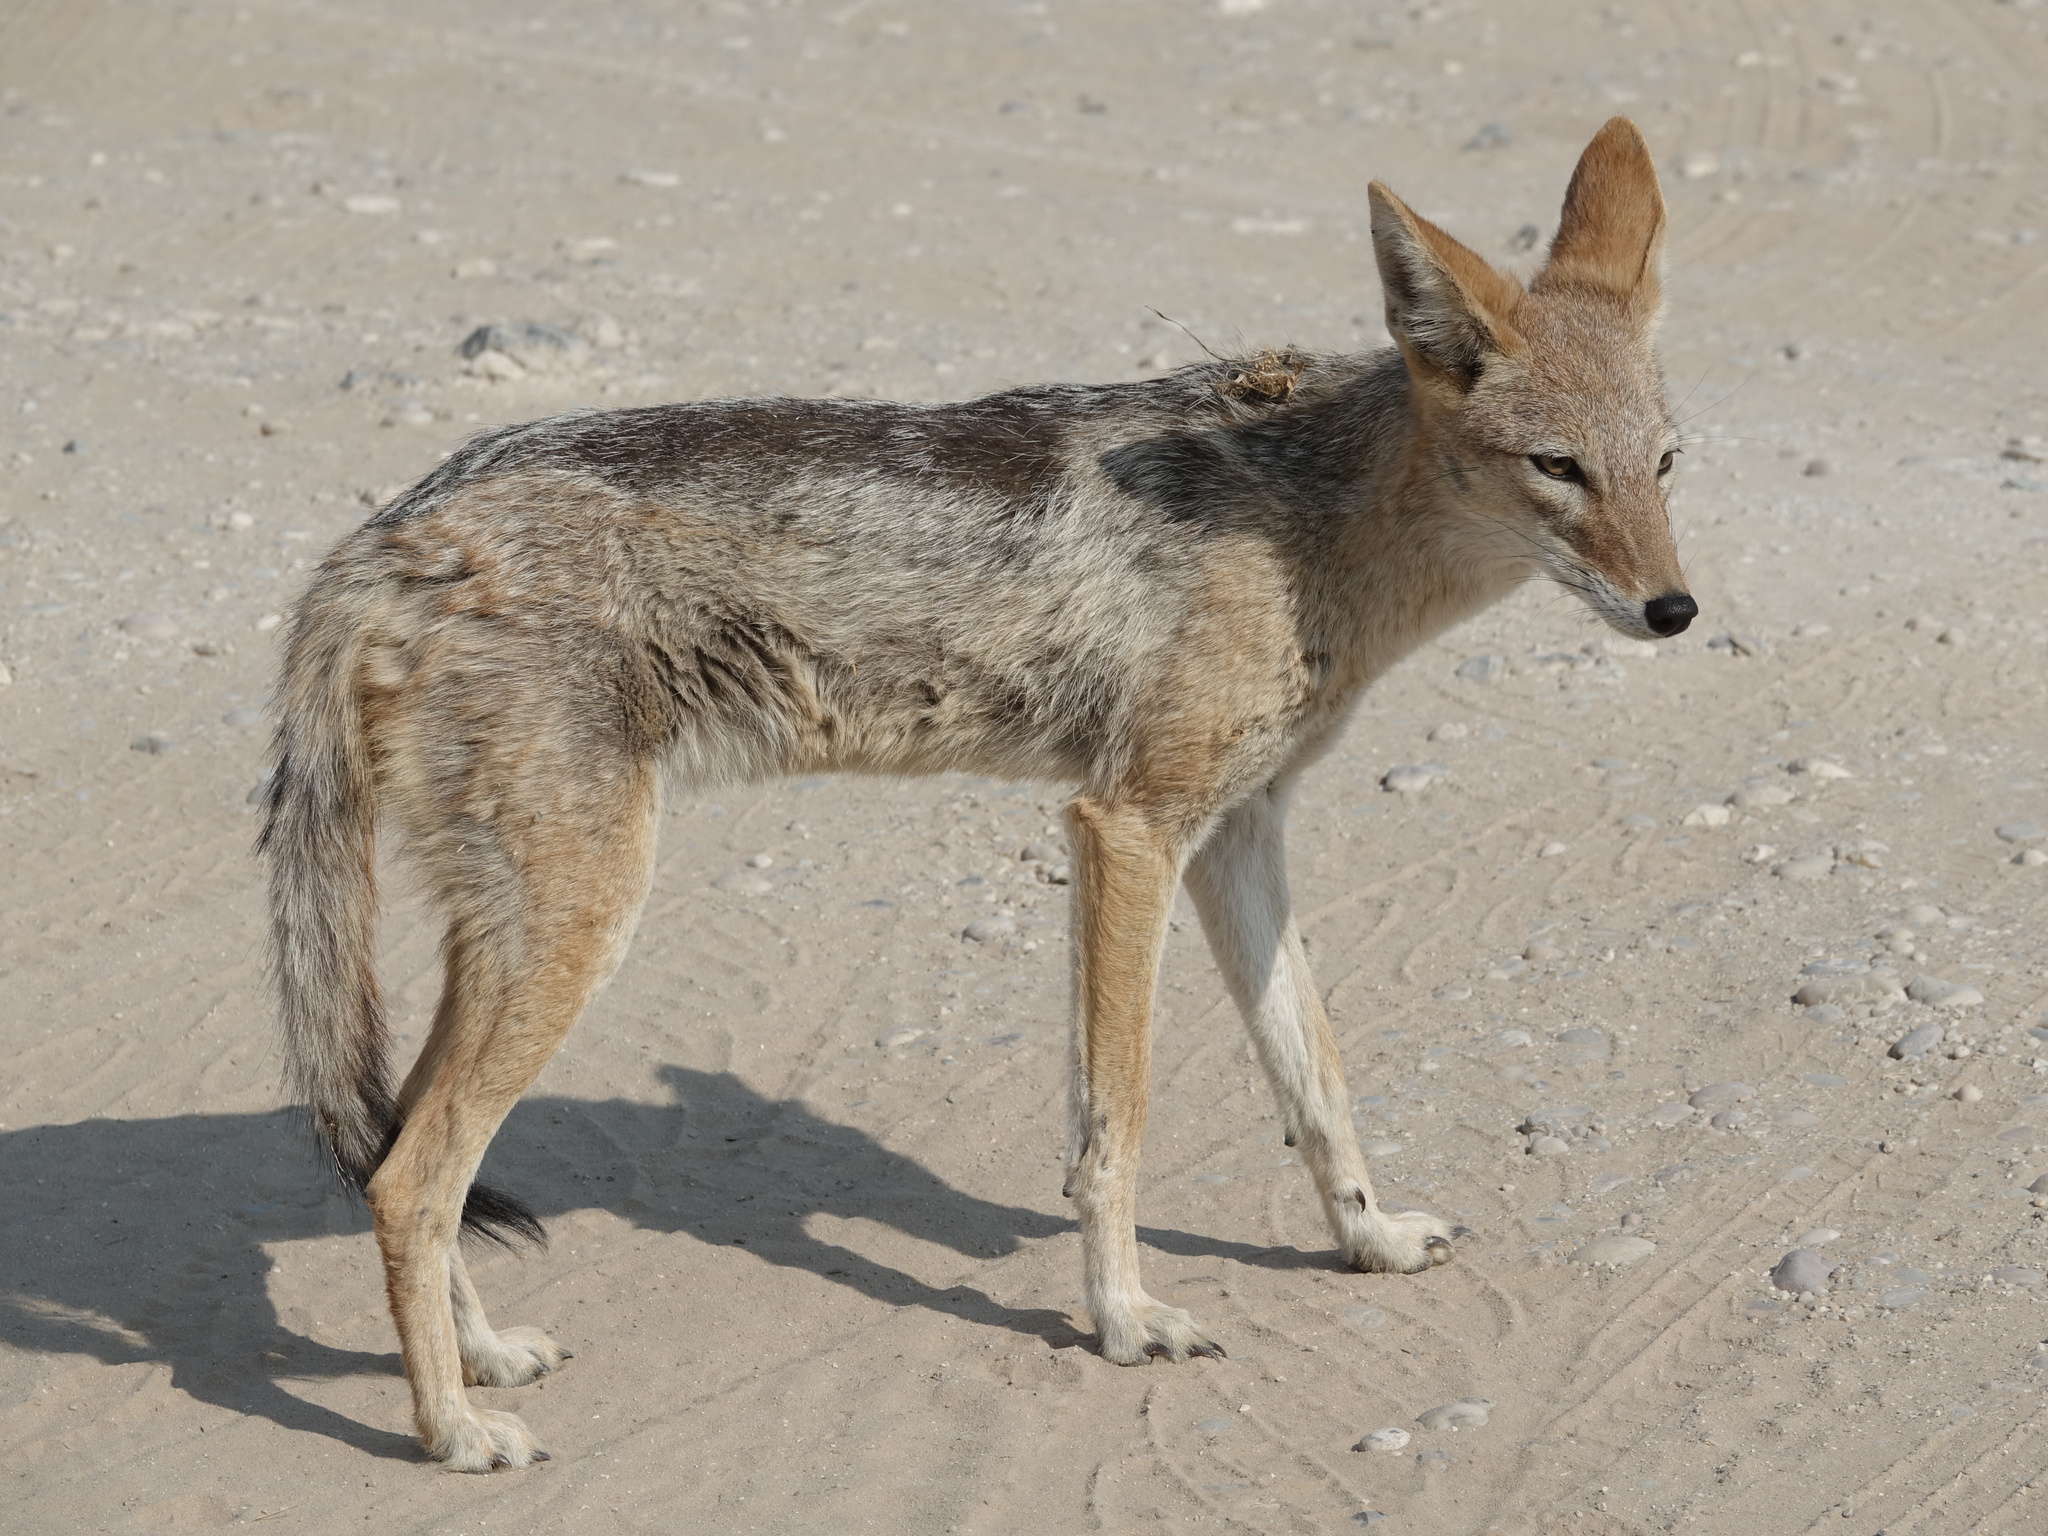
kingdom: Animalia
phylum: Chordata
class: Mammalia
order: Carnivora
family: Canidae
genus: Lupulella
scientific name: Lupulella
